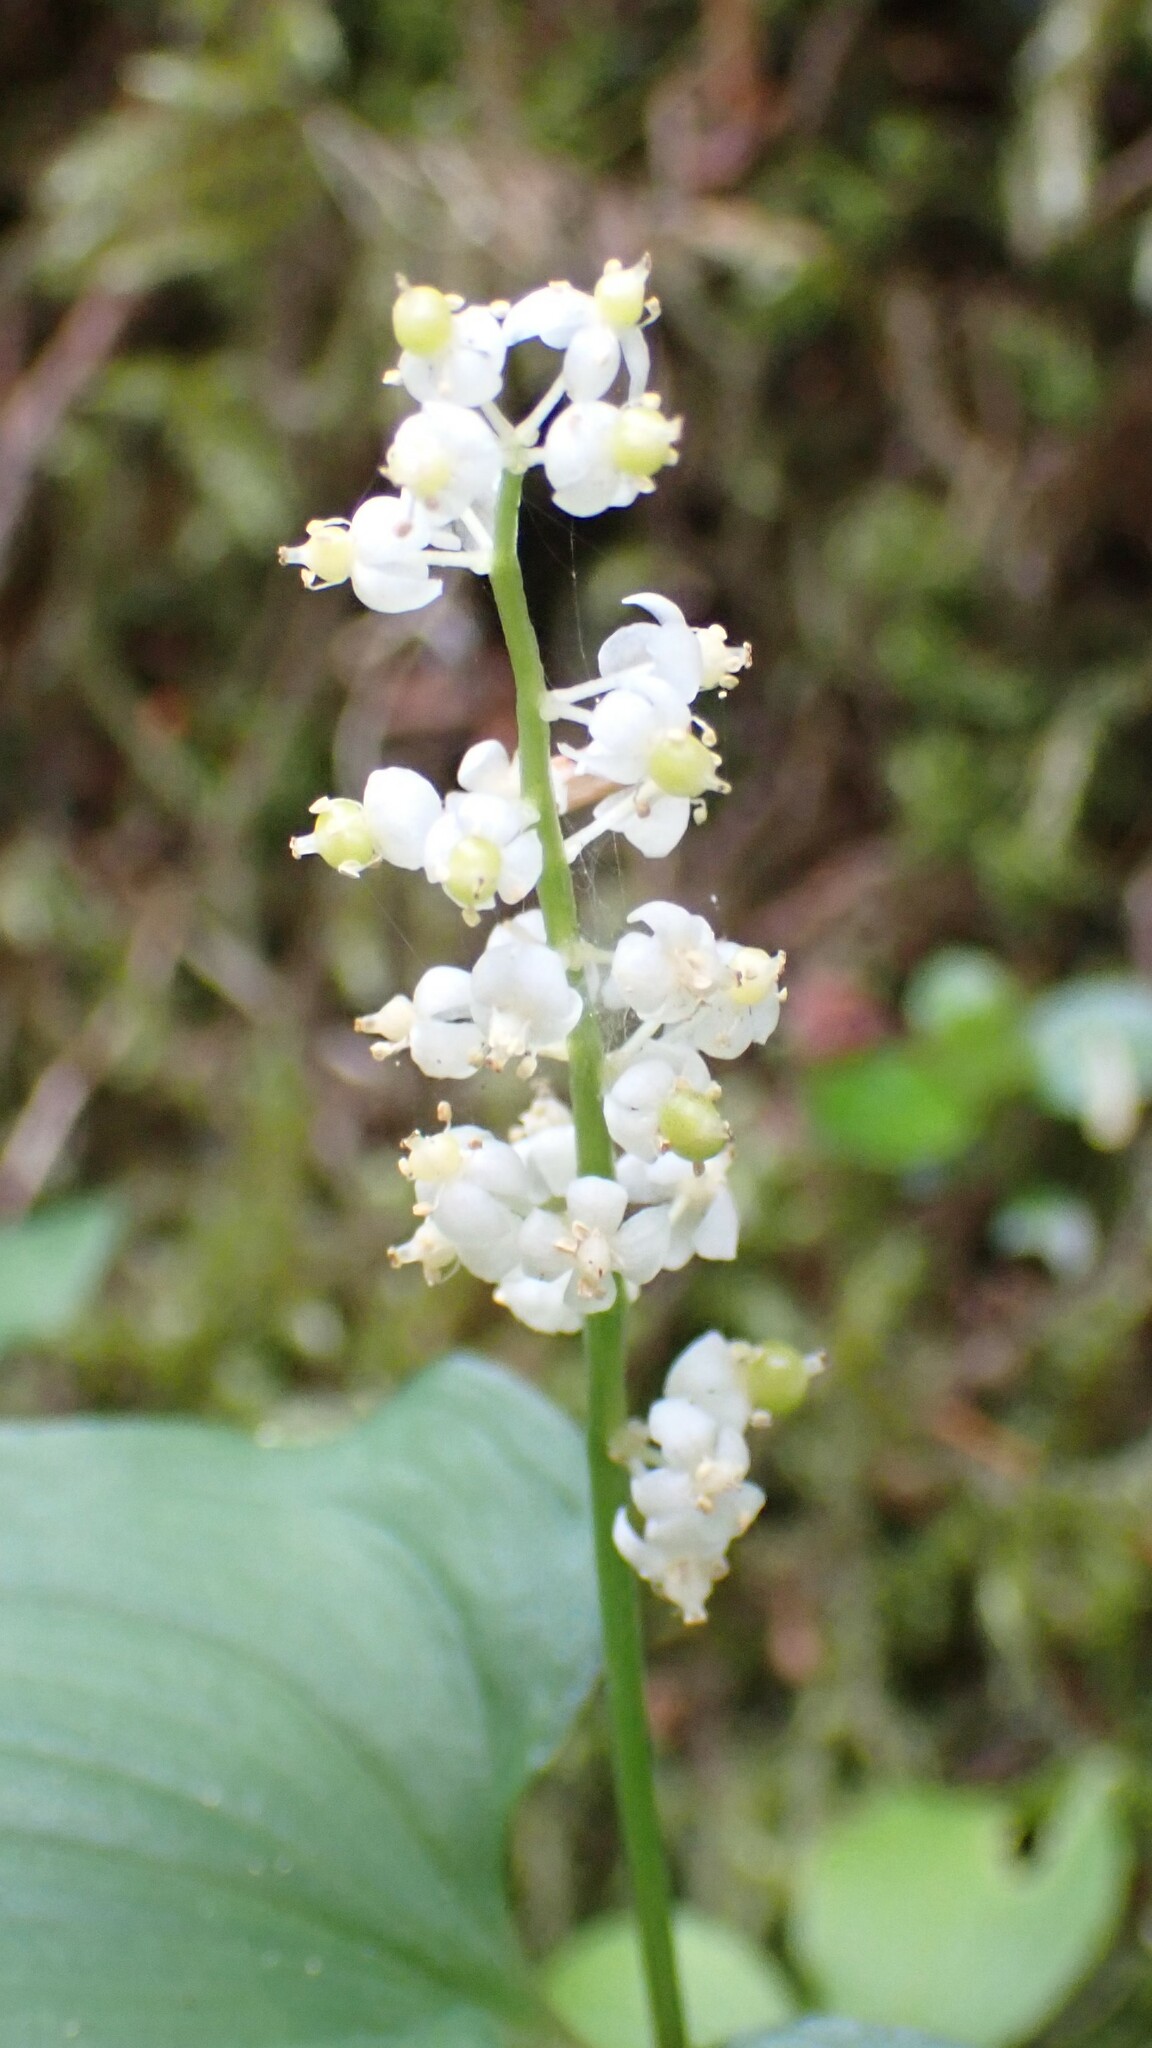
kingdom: Plantae
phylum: Tracheophyta
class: Liliopsida
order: Asparagales
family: Asparagaceae
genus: Maianthemum
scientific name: Maianthemum dilatatum
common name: False lily-of-the-valley
